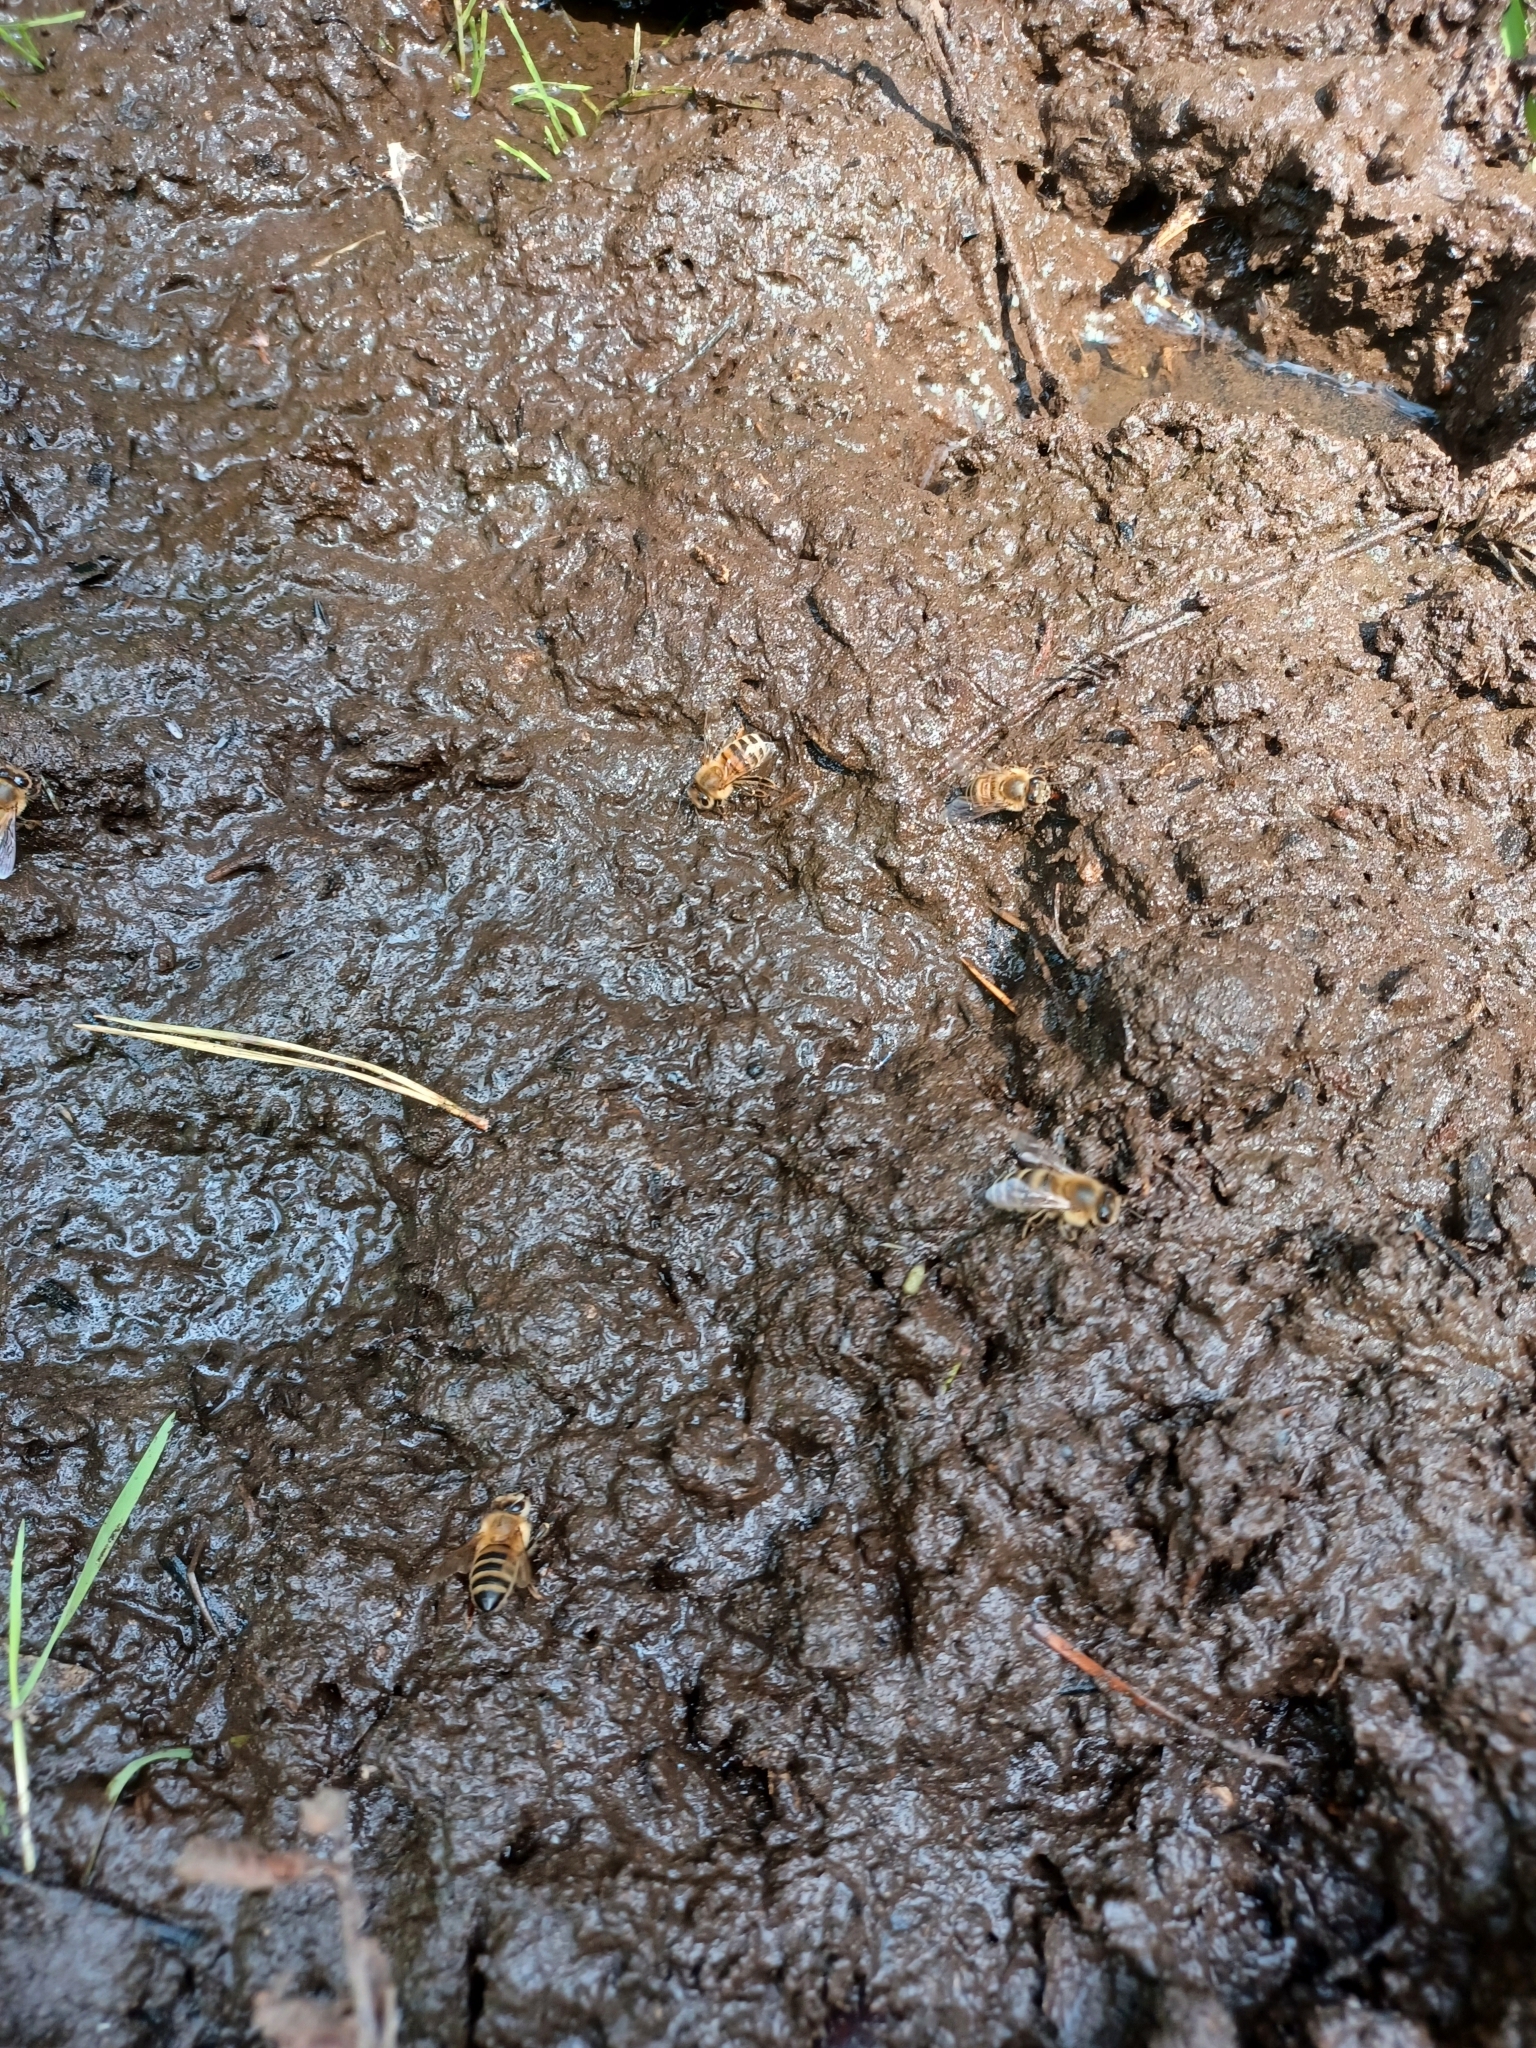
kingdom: Animalia
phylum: Arthropoda
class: Insecta
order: Hymenoptera
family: Apidae
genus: Apis
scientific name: Apis mellifera
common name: Honey bee
